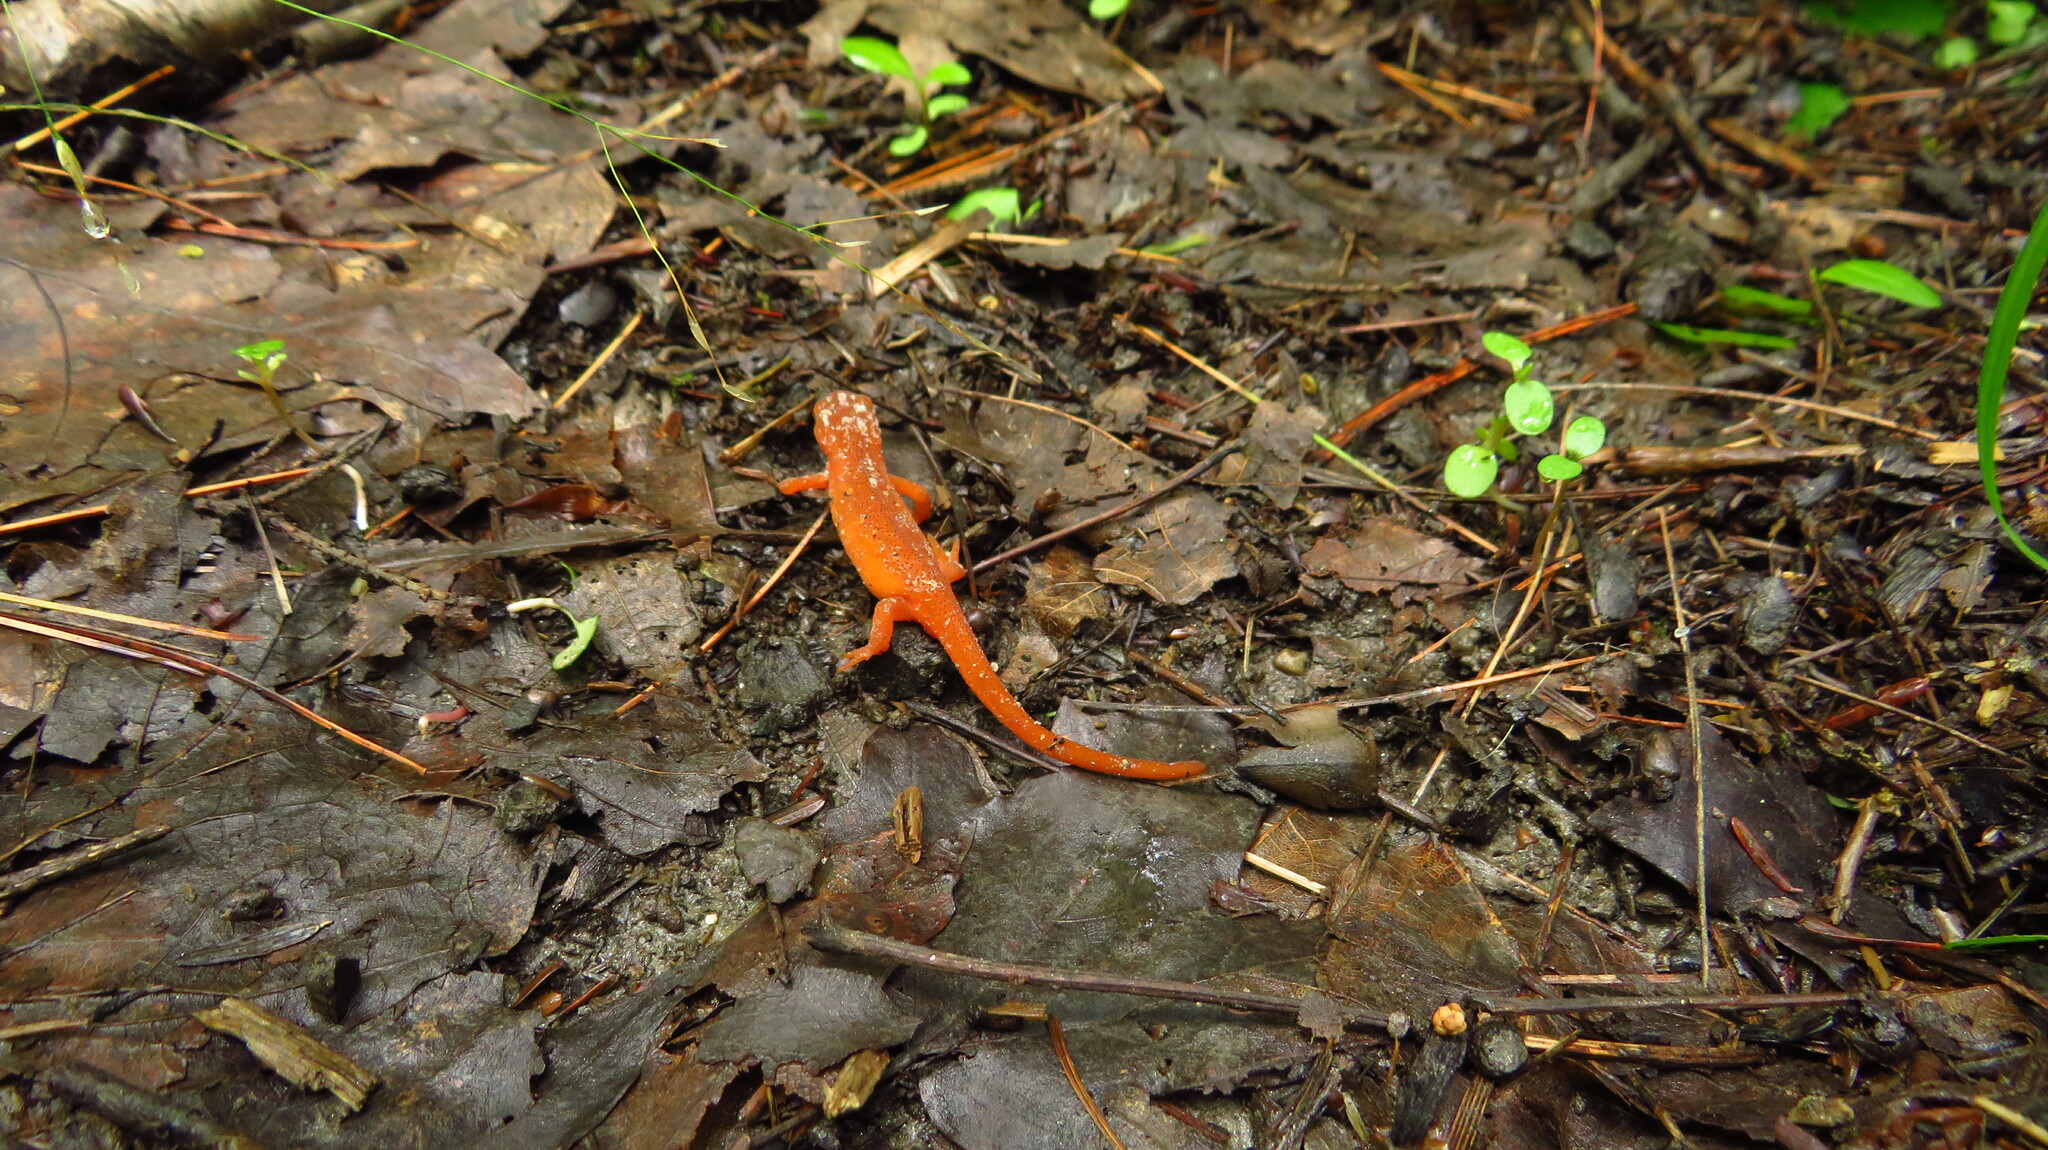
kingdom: Animalia
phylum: Chordata
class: Amphibia
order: Caudata
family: Salamandridae
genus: Notophthalmus
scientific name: Notophthalmus viridescens
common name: Eastern newt
